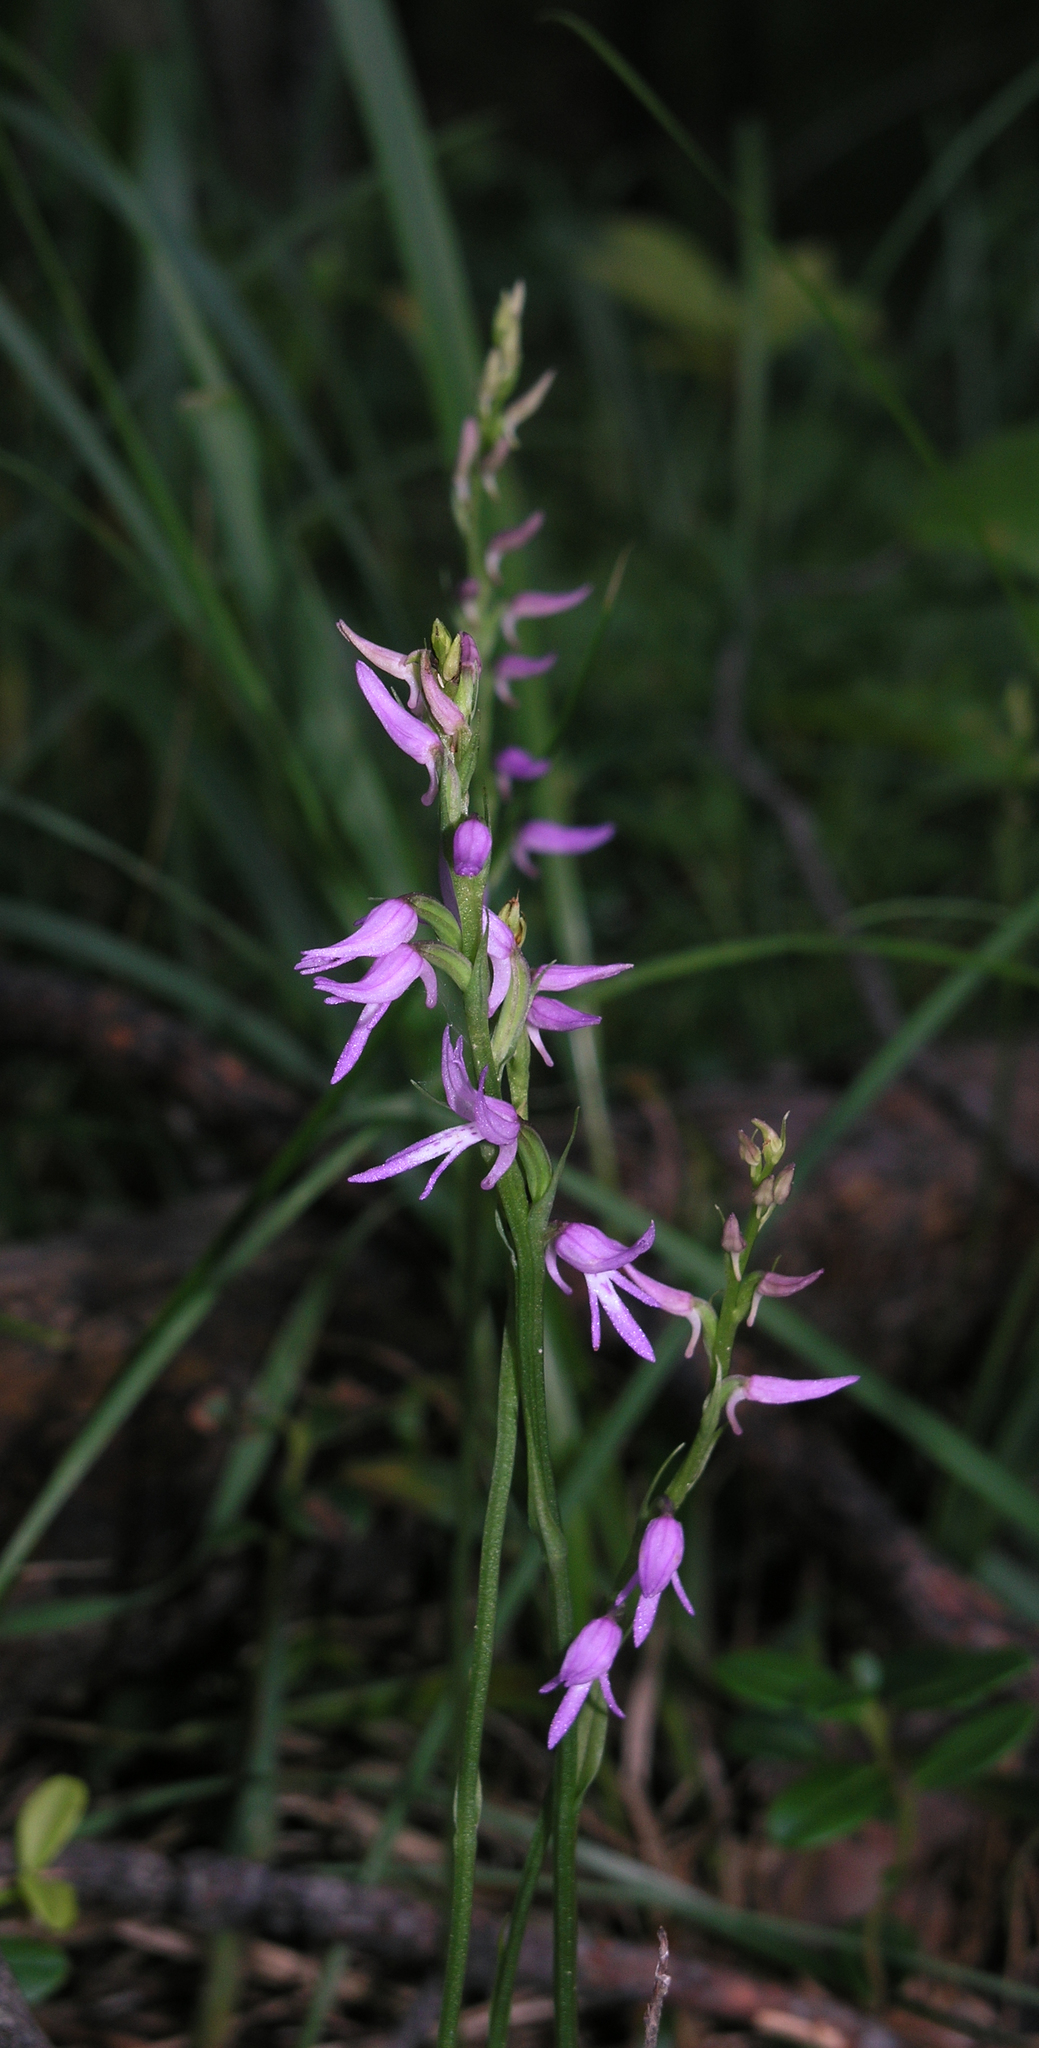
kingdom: Plantae
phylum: Tracheophyta
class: Liliopsida
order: Asparagales
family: Orchidaceae
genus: Hemipilia
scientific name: Hemipilia cucullata
